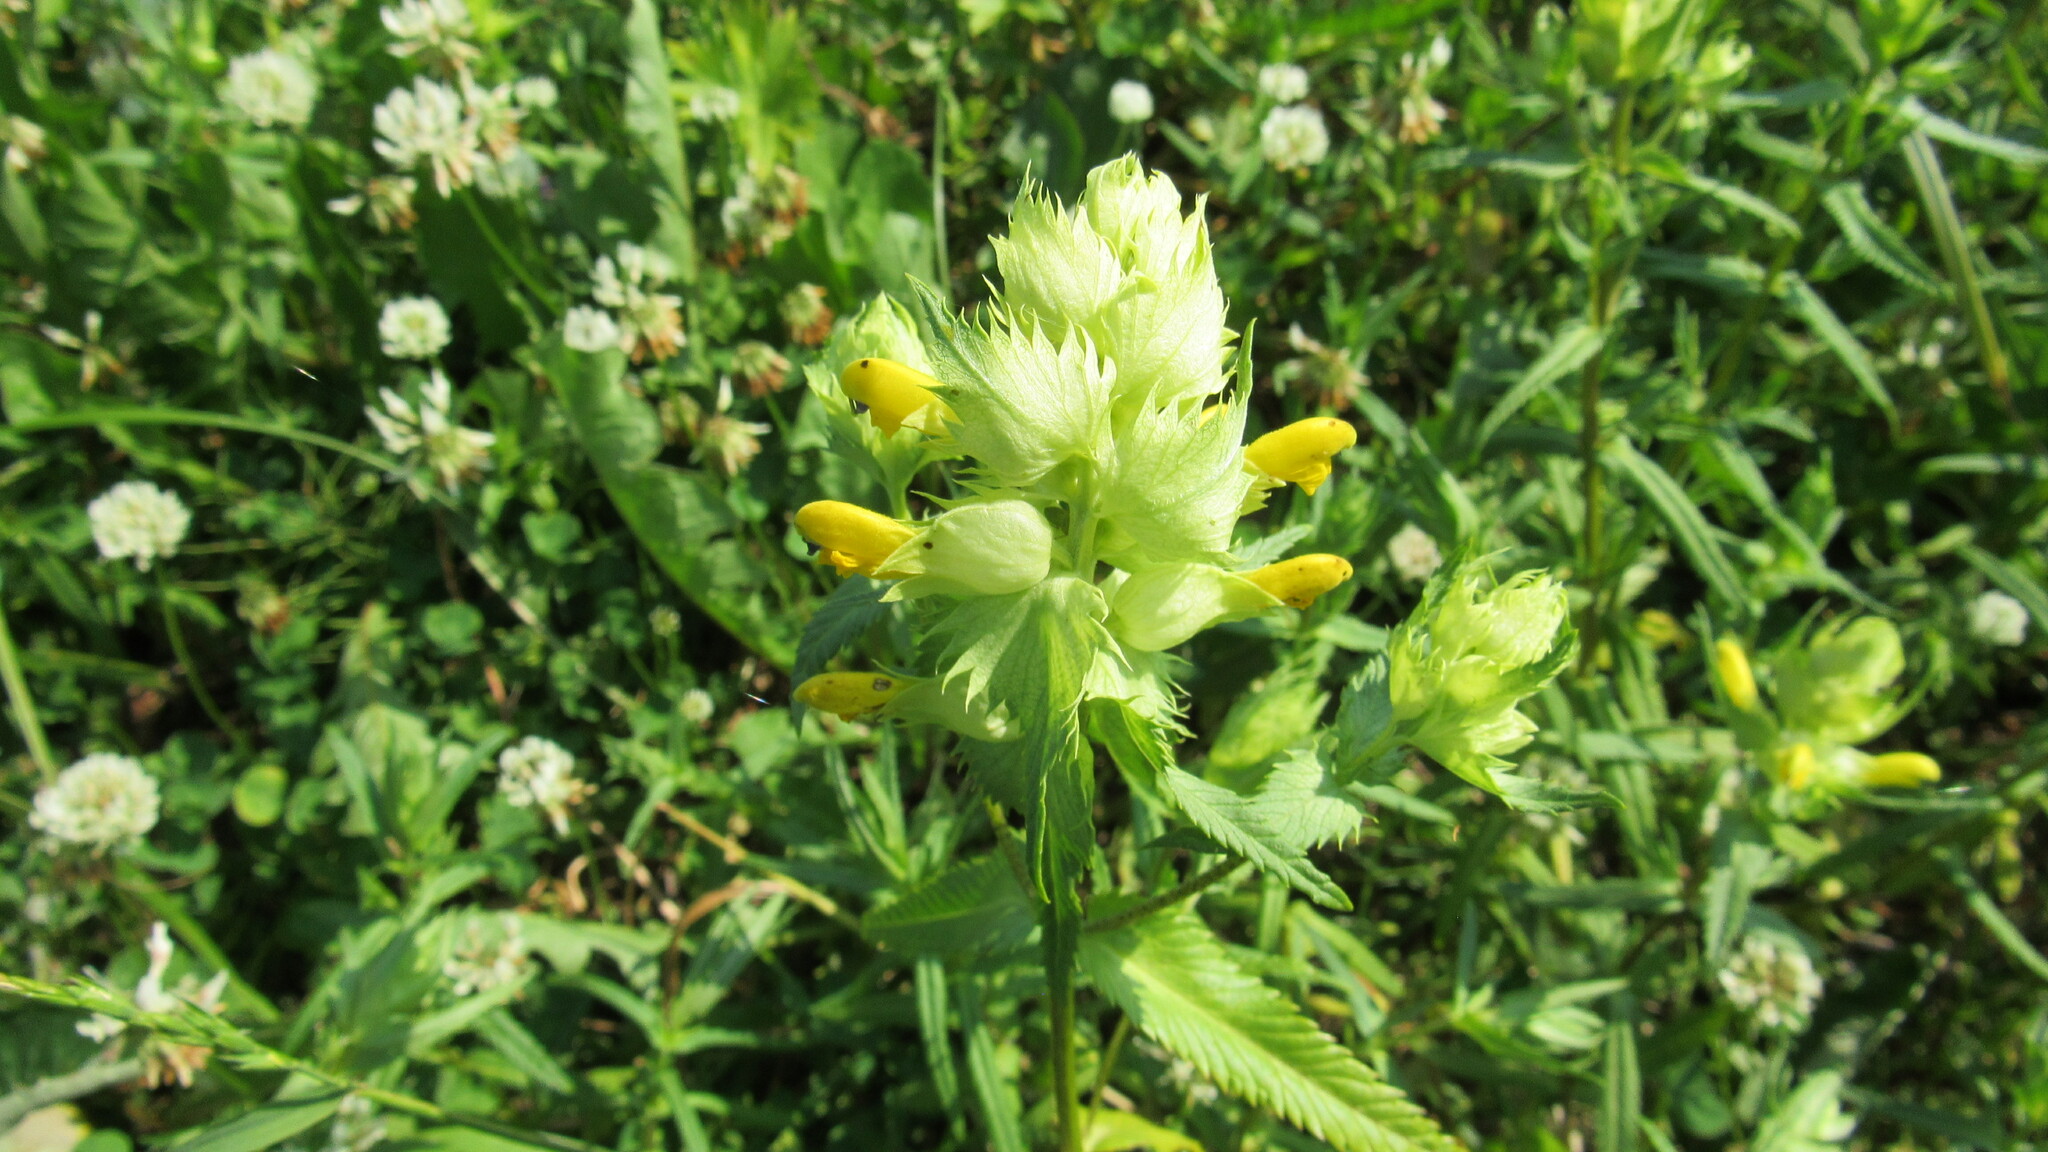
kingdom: Plantae
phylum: Tracheophyta
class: Magnoliopsida
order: Lamiales
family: Orobanchaceae
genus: Rhinanthus
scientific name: Rhinanthus serotinus
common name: Late-flowering yellow rattle
